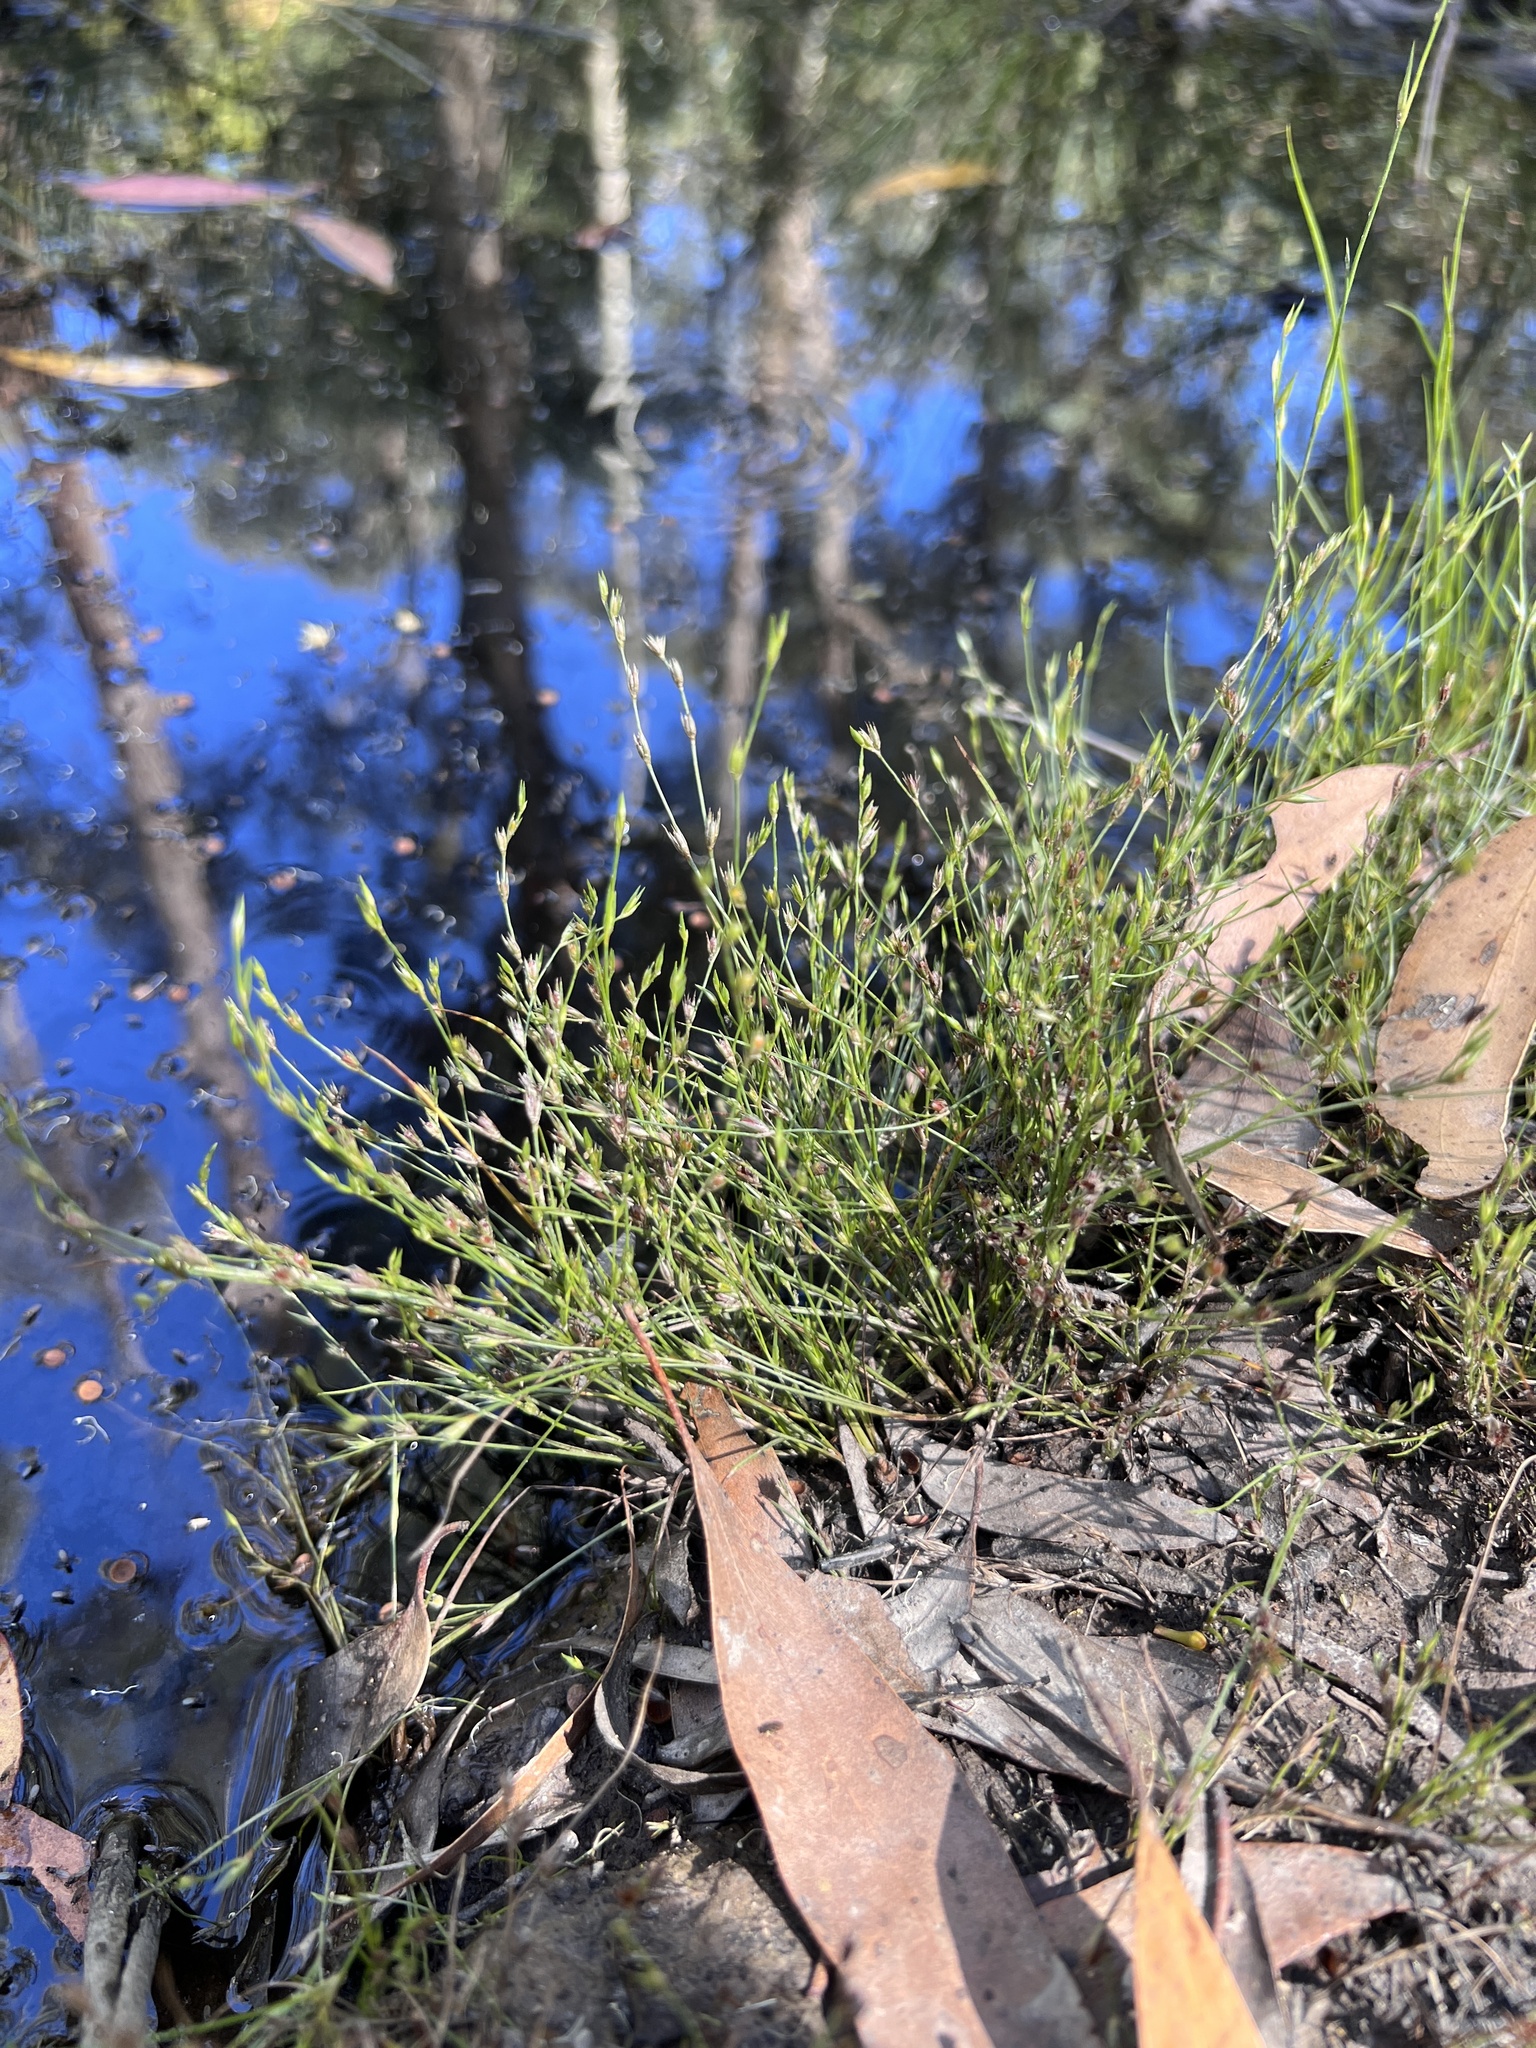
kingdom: Plantae
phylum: Tracheophyta
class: Liliopsida
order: Poales
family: Juncaceae
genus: Juncus
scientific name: Juncus bufonius
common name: Toad rush
